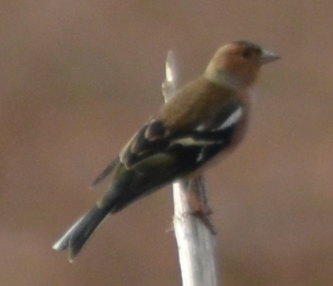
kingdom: Animalia
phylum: Chordata
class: Aves
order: Passeriformes
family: Fringillidae
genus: Fringilla
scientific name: Fringilla coelebs
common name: Common chaffinch
